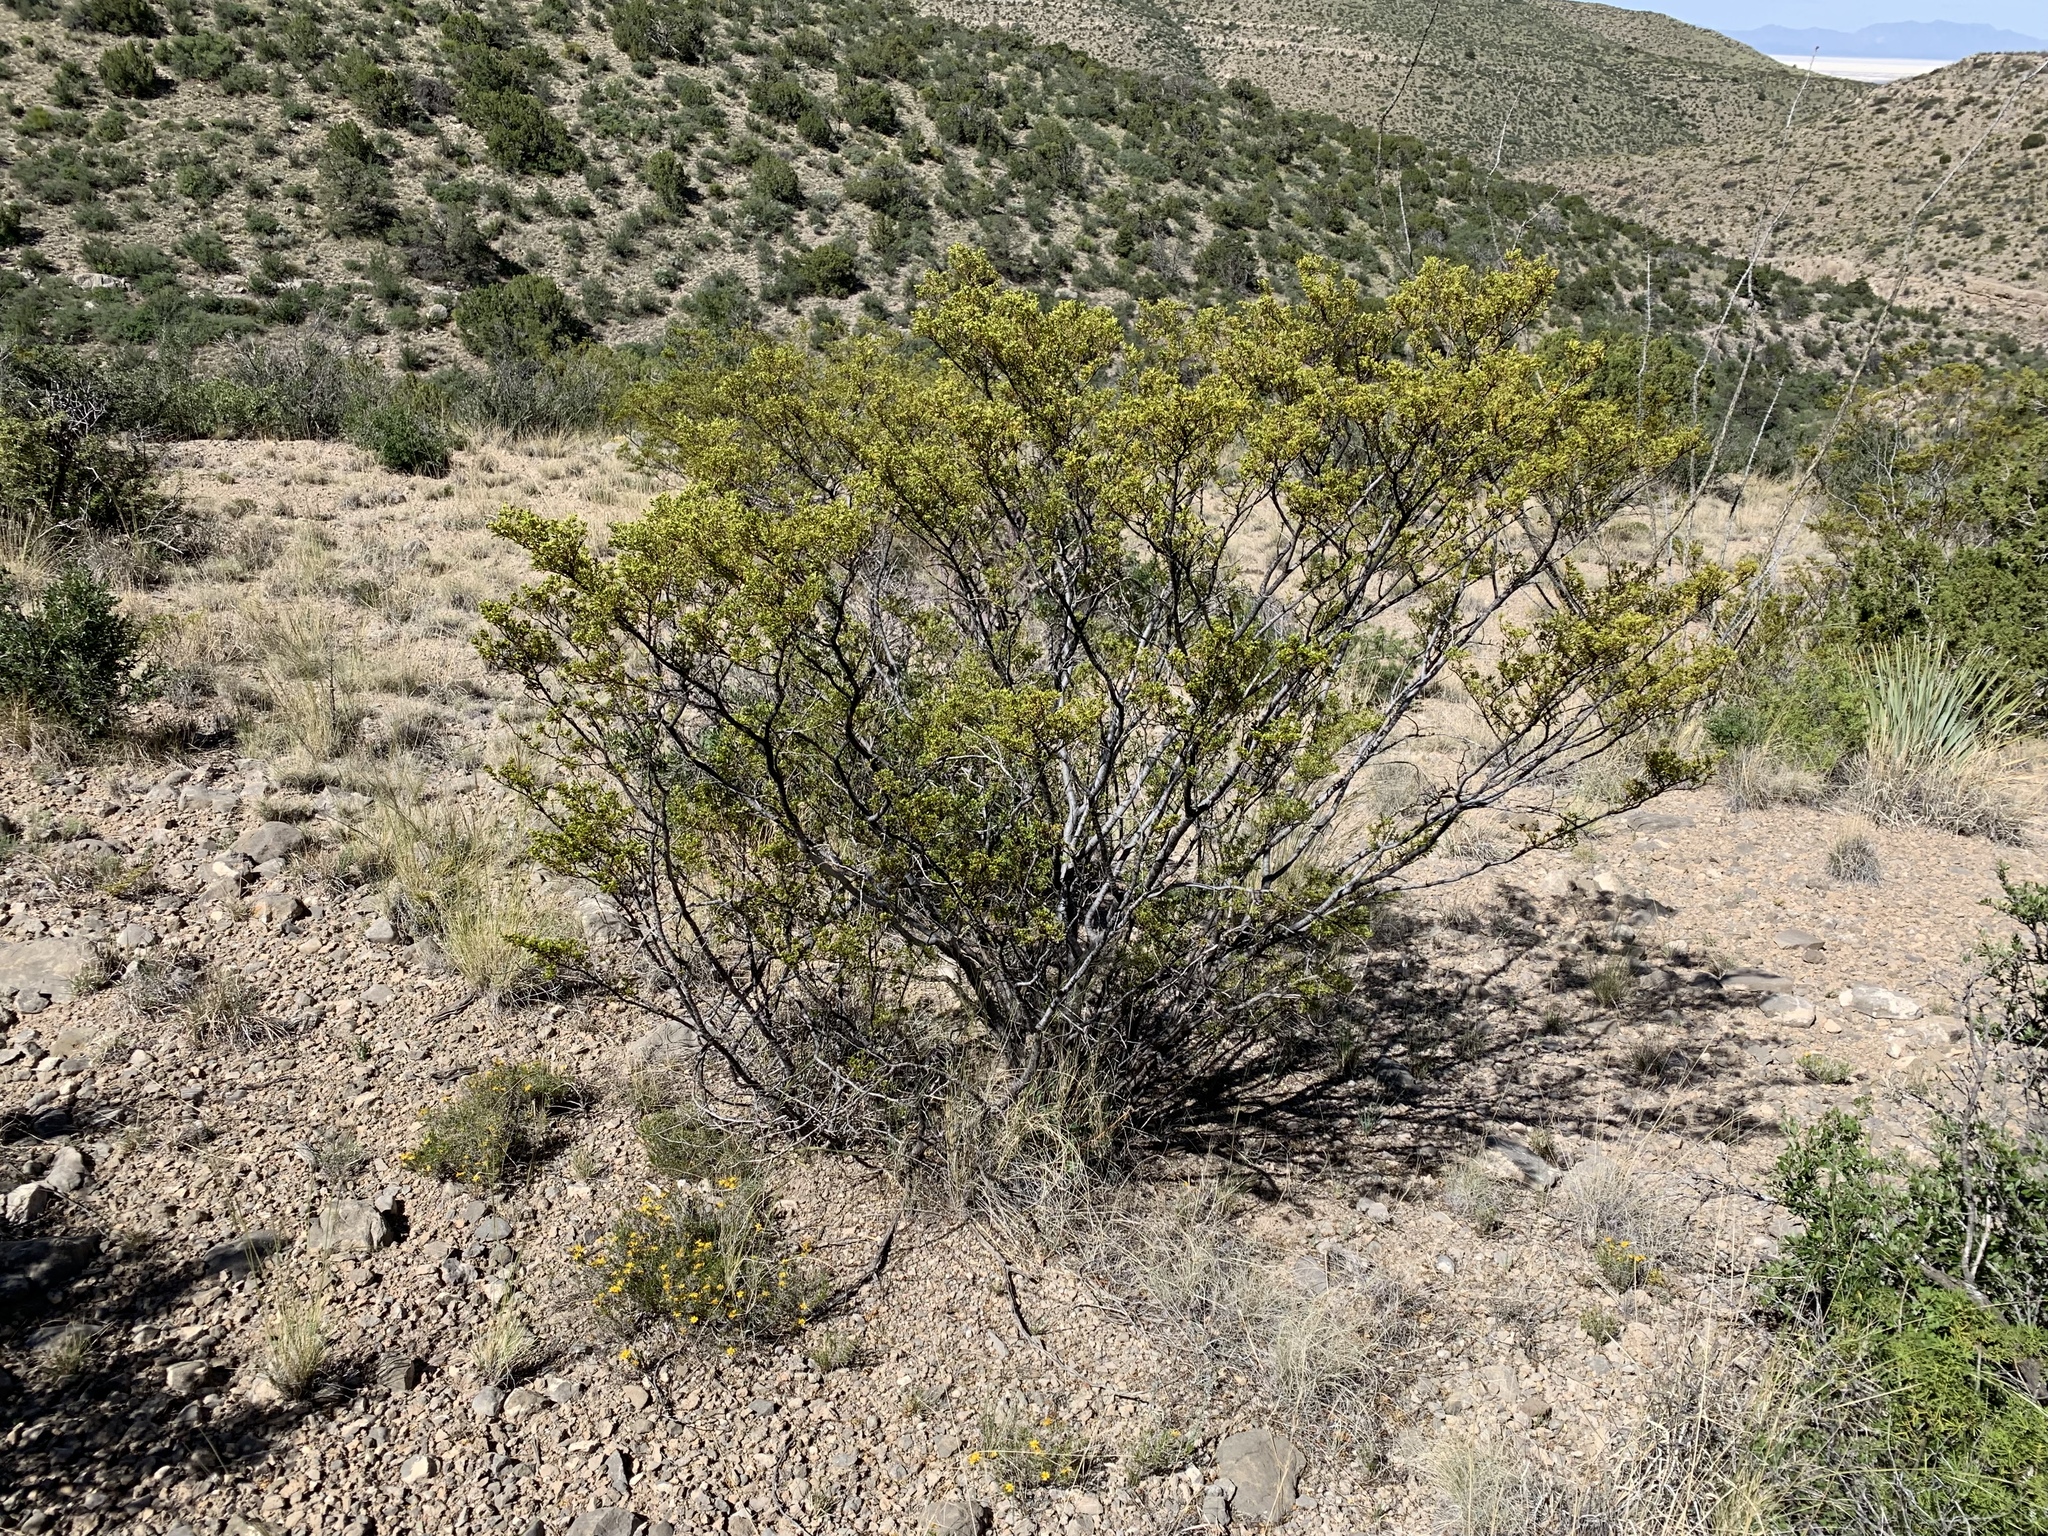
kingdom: Plantae
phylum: Tracheophyta
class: Magnoliopsida
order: Zygophyllales
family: Zygophyllaceae
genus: Larrea
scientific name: Larrea tridentata
